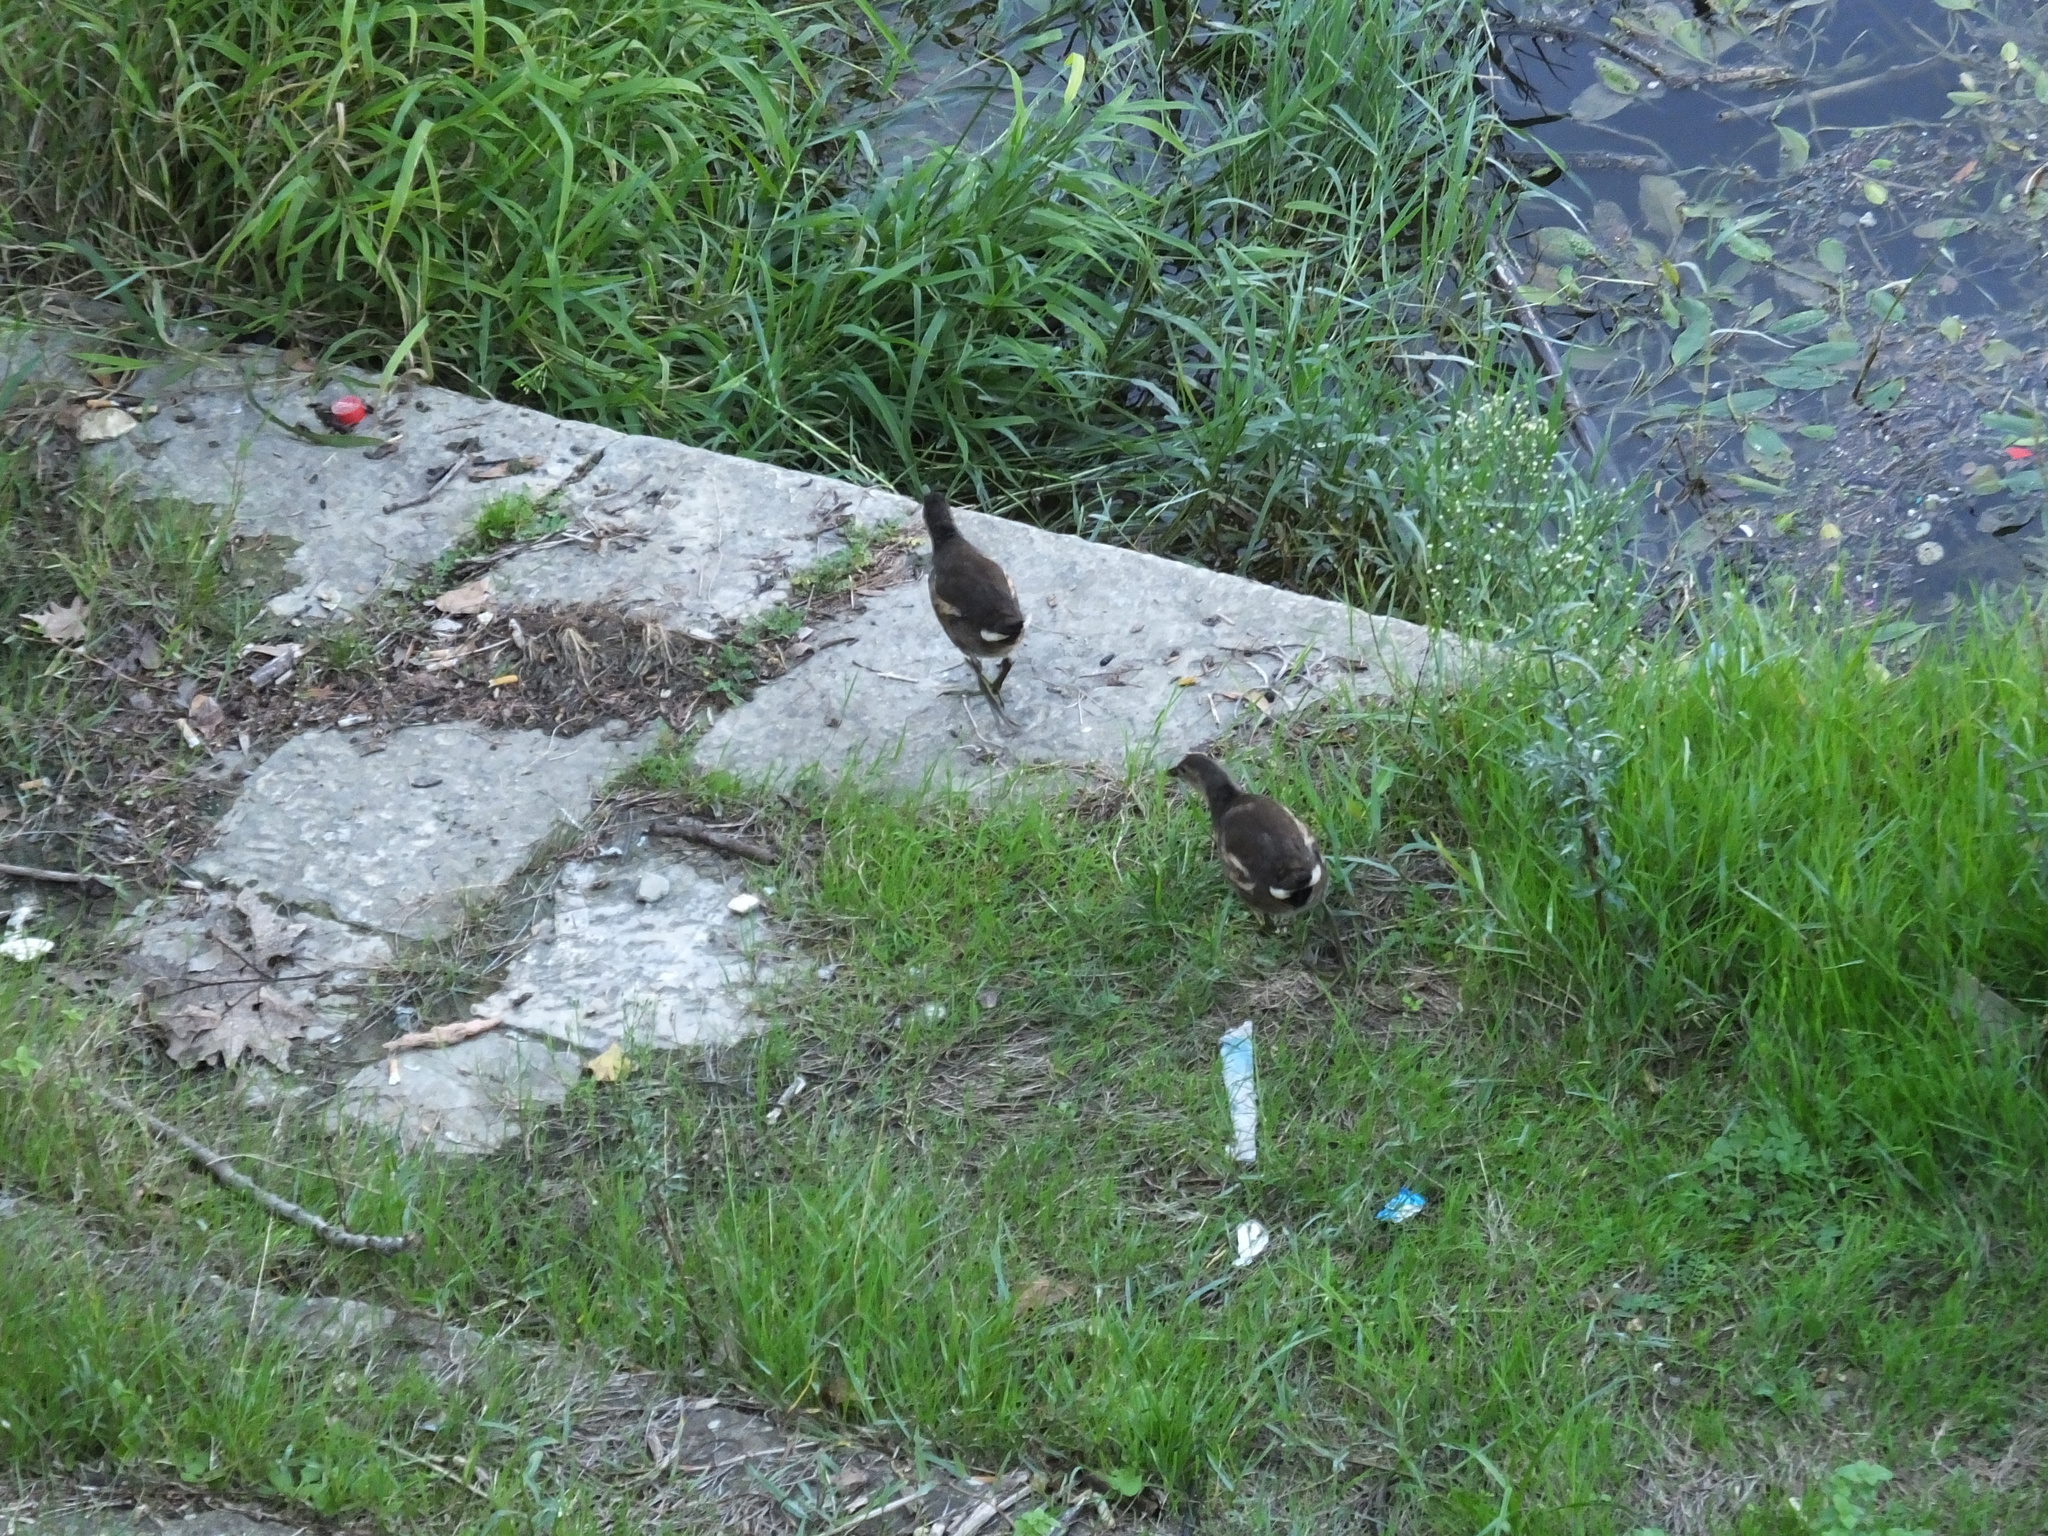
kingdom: Animalia
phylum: Chordata
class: Aves
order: Gruiformes
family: Rallidae
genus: Gallinula
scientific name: Gallinula chloropus
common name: Common moorhen
